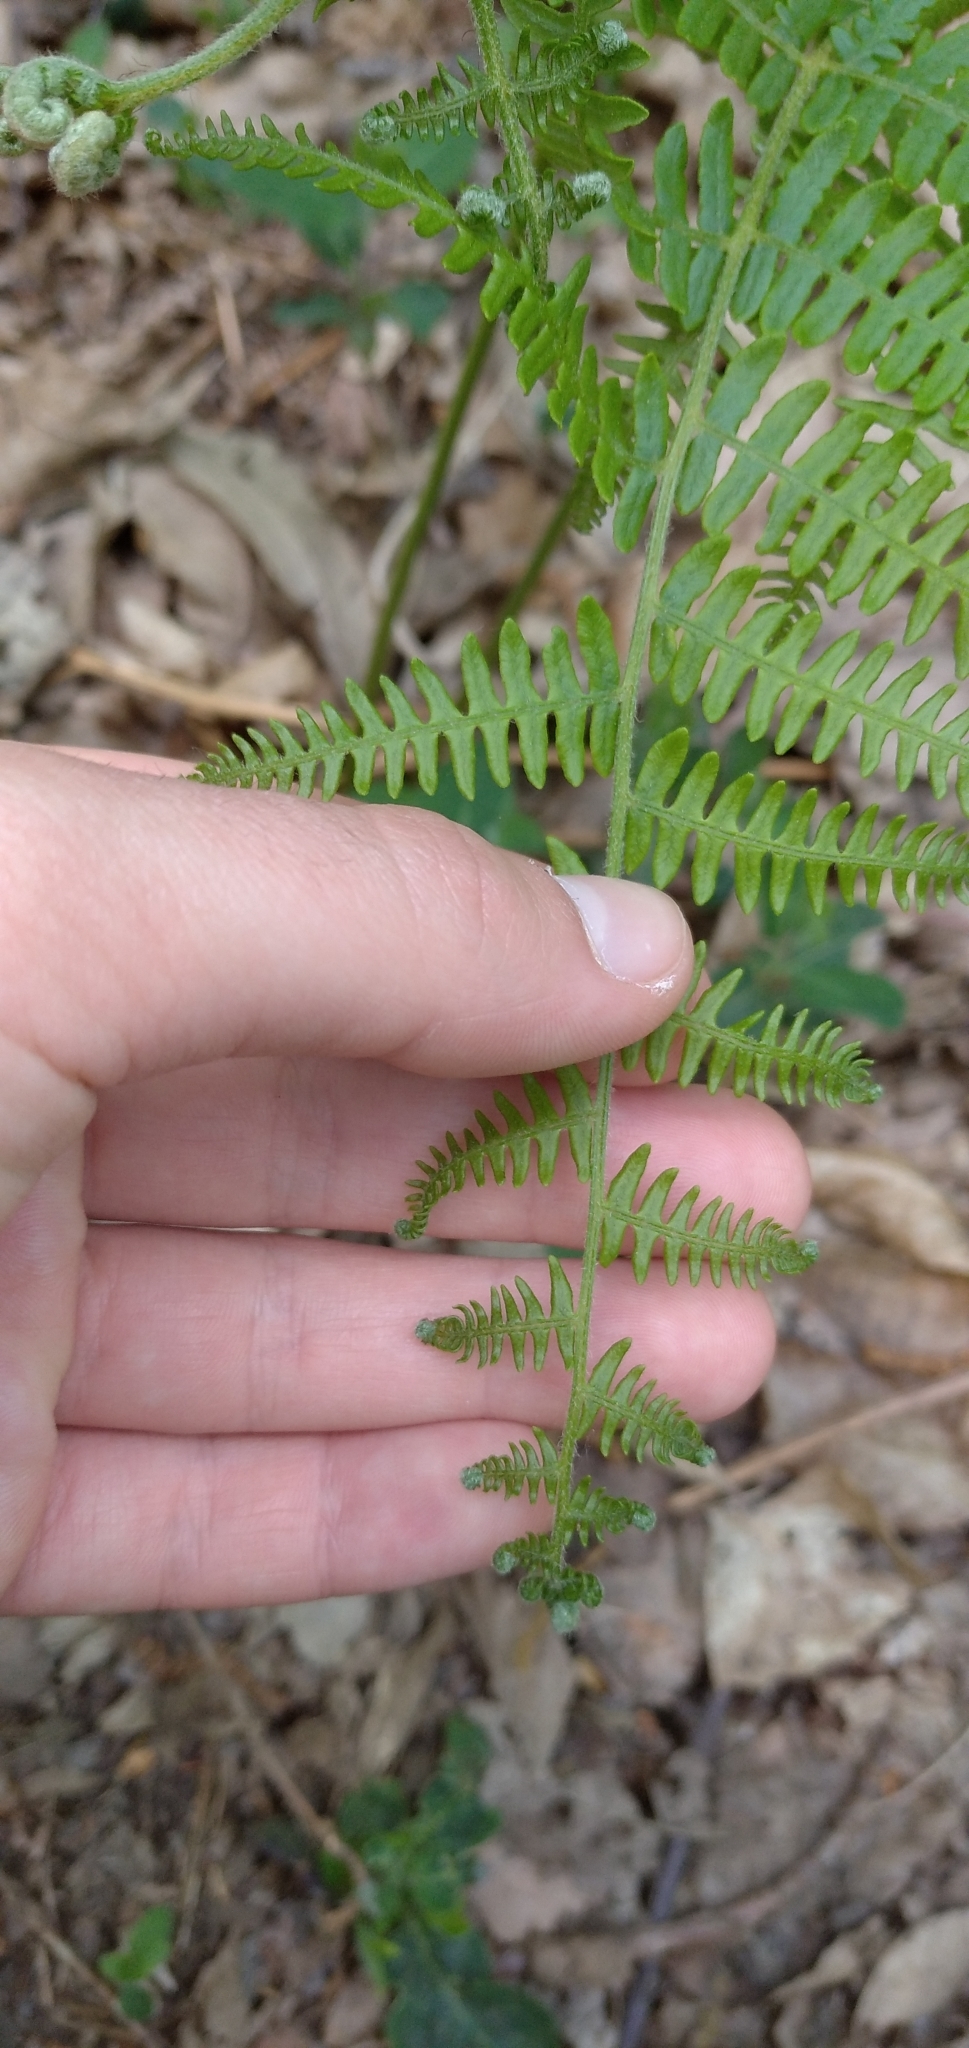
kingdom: Plantae
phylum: Tracheophyta
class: Polypodiopsida
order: Polypodiales
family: Dennstaedtiaceae
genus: Pteridium
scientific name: Pteridium aquilinum
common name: Bracken
